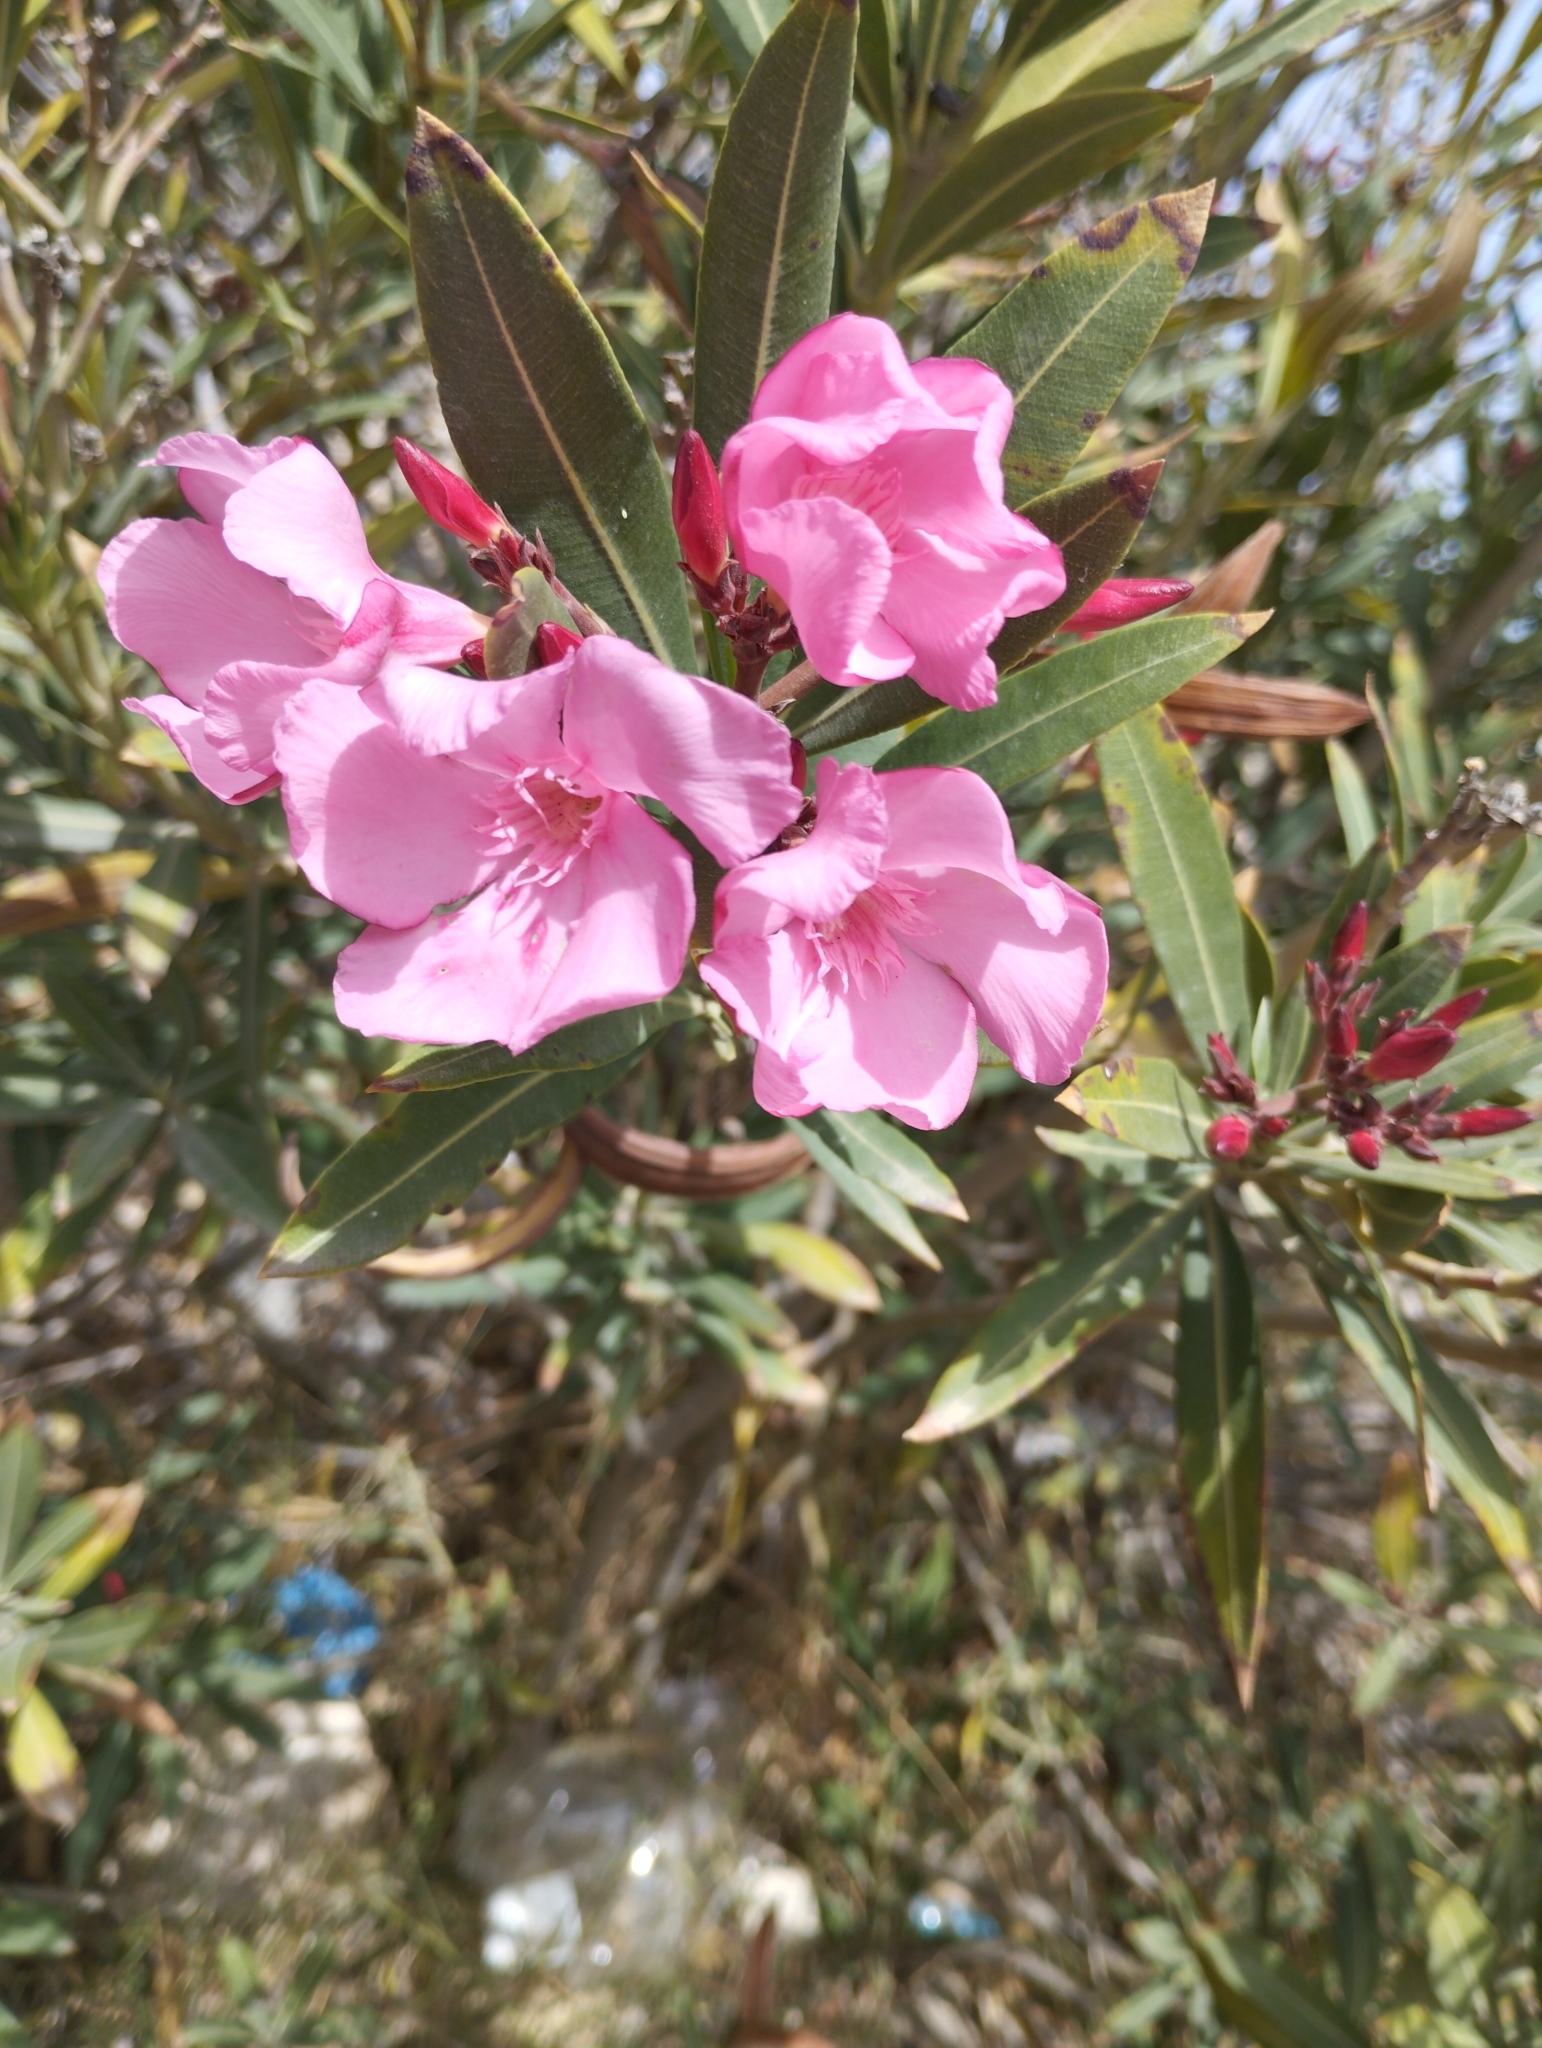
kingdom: Plantae
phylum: Tracheophyta
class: Magnoliopsida
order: Gentianales
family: Apocynaceae
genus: Nerium
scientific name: Nerium oleander
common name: Oleander
